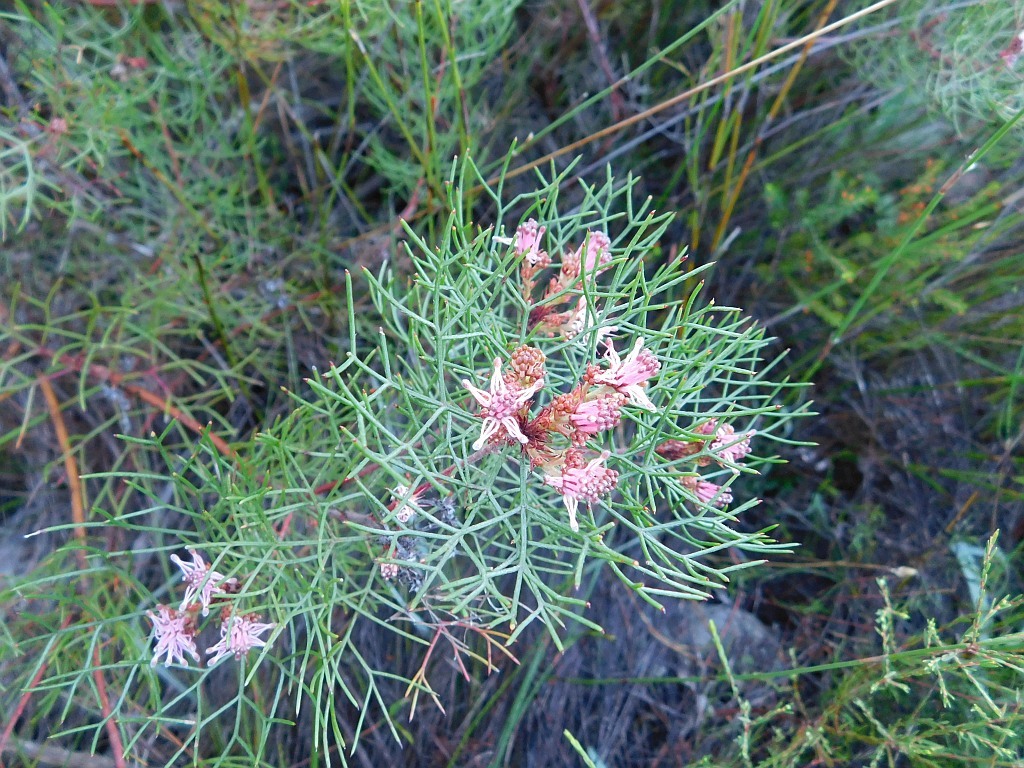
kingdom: Plantae
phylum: Tracheophyta
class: Magnoliopsida
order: Proteales
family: Proteaceae
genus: Serruria
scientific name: Serruria fasciflora
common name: Common pin spiderhead
